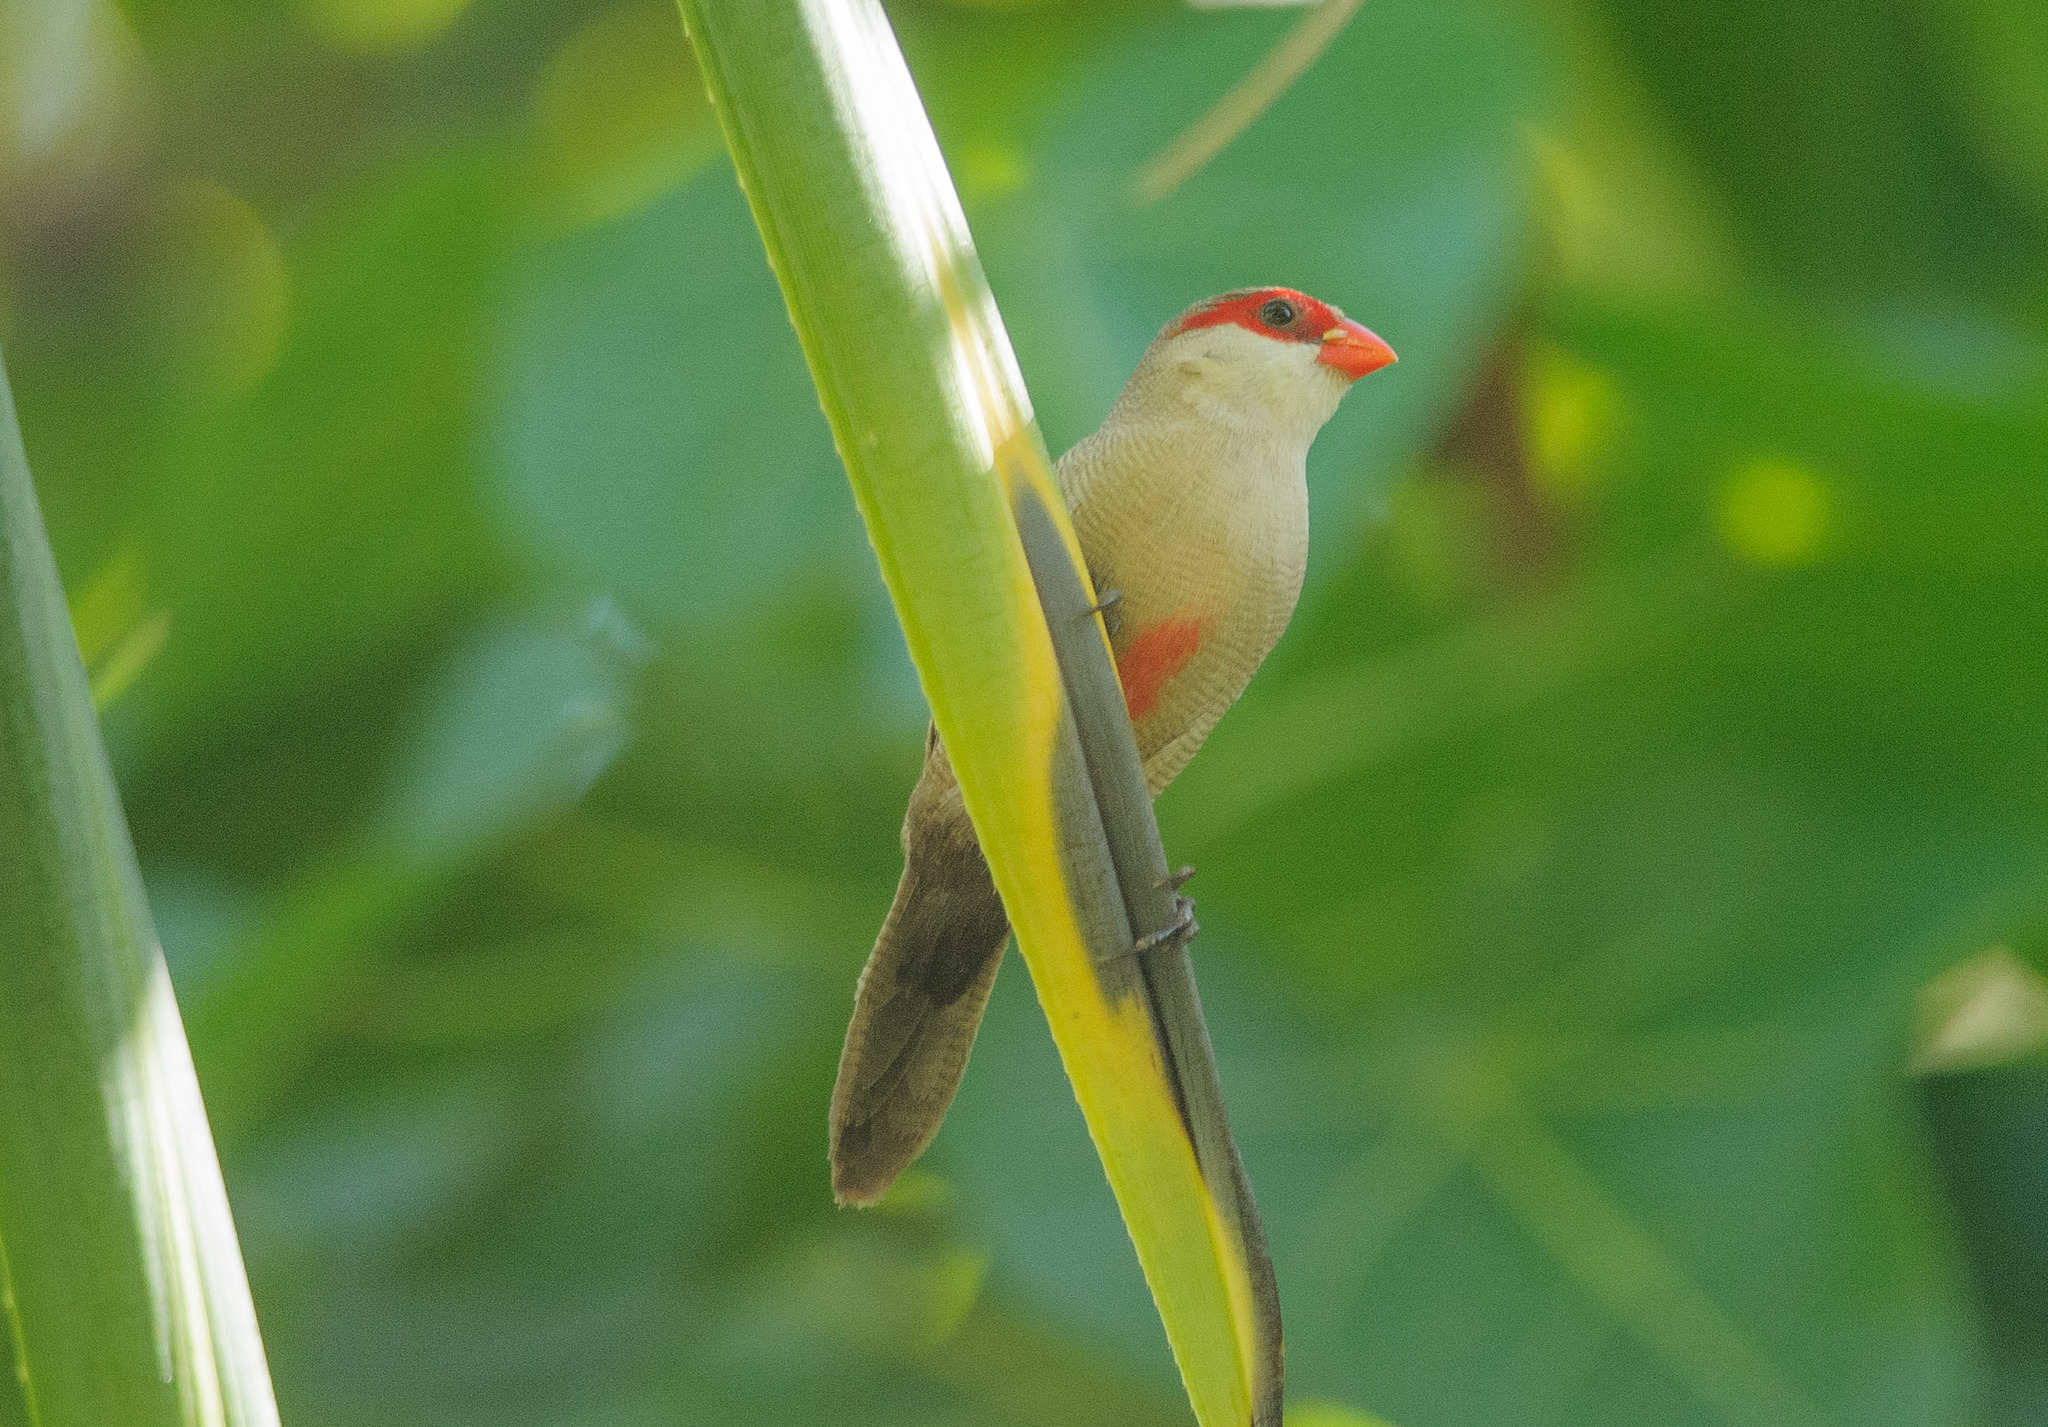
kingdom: Animalia
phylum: Chordata
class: Aves
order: Passeriformes
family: Estrildidae
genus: Estrilda
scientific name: Estrilda astrild
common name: Common waxbill
